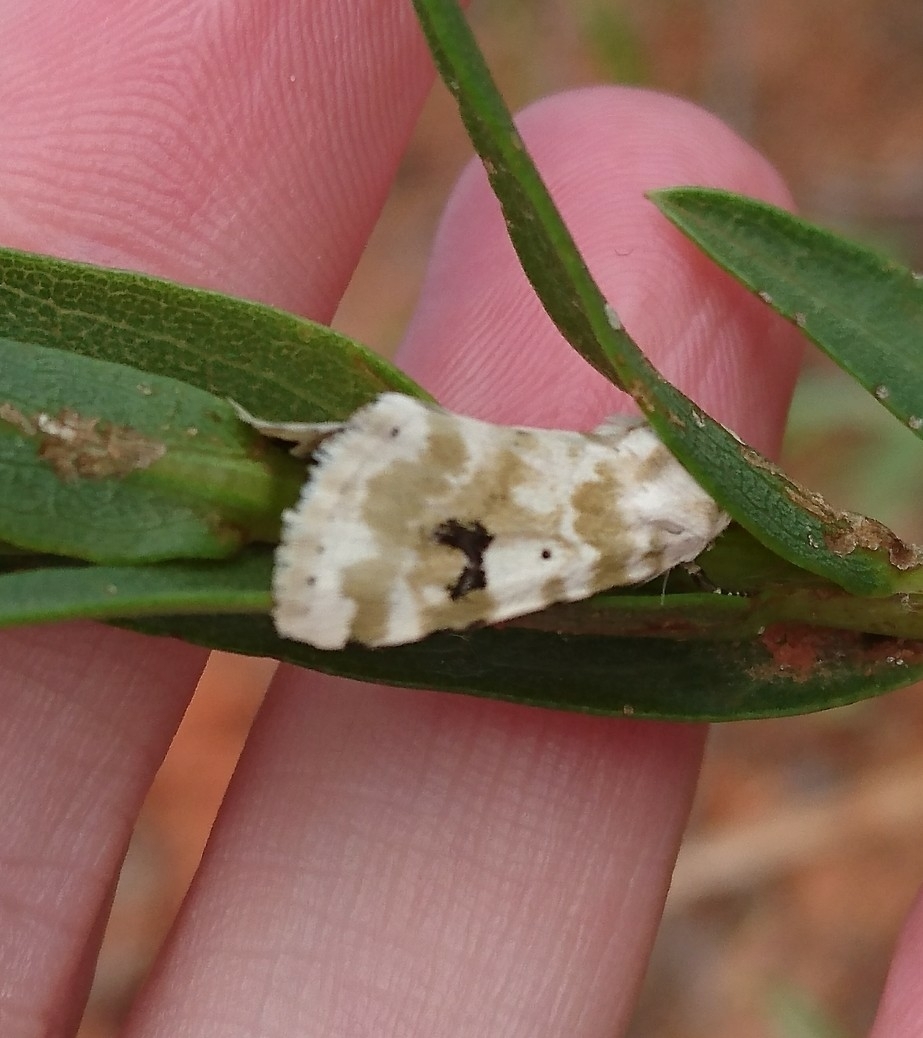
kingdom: Animalia
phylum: Arthropoda
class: Insecta
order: Lepidoptera
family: Noctuidae
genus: Schinia
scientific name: Schinia nundina
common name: Goldenrod flower moth
